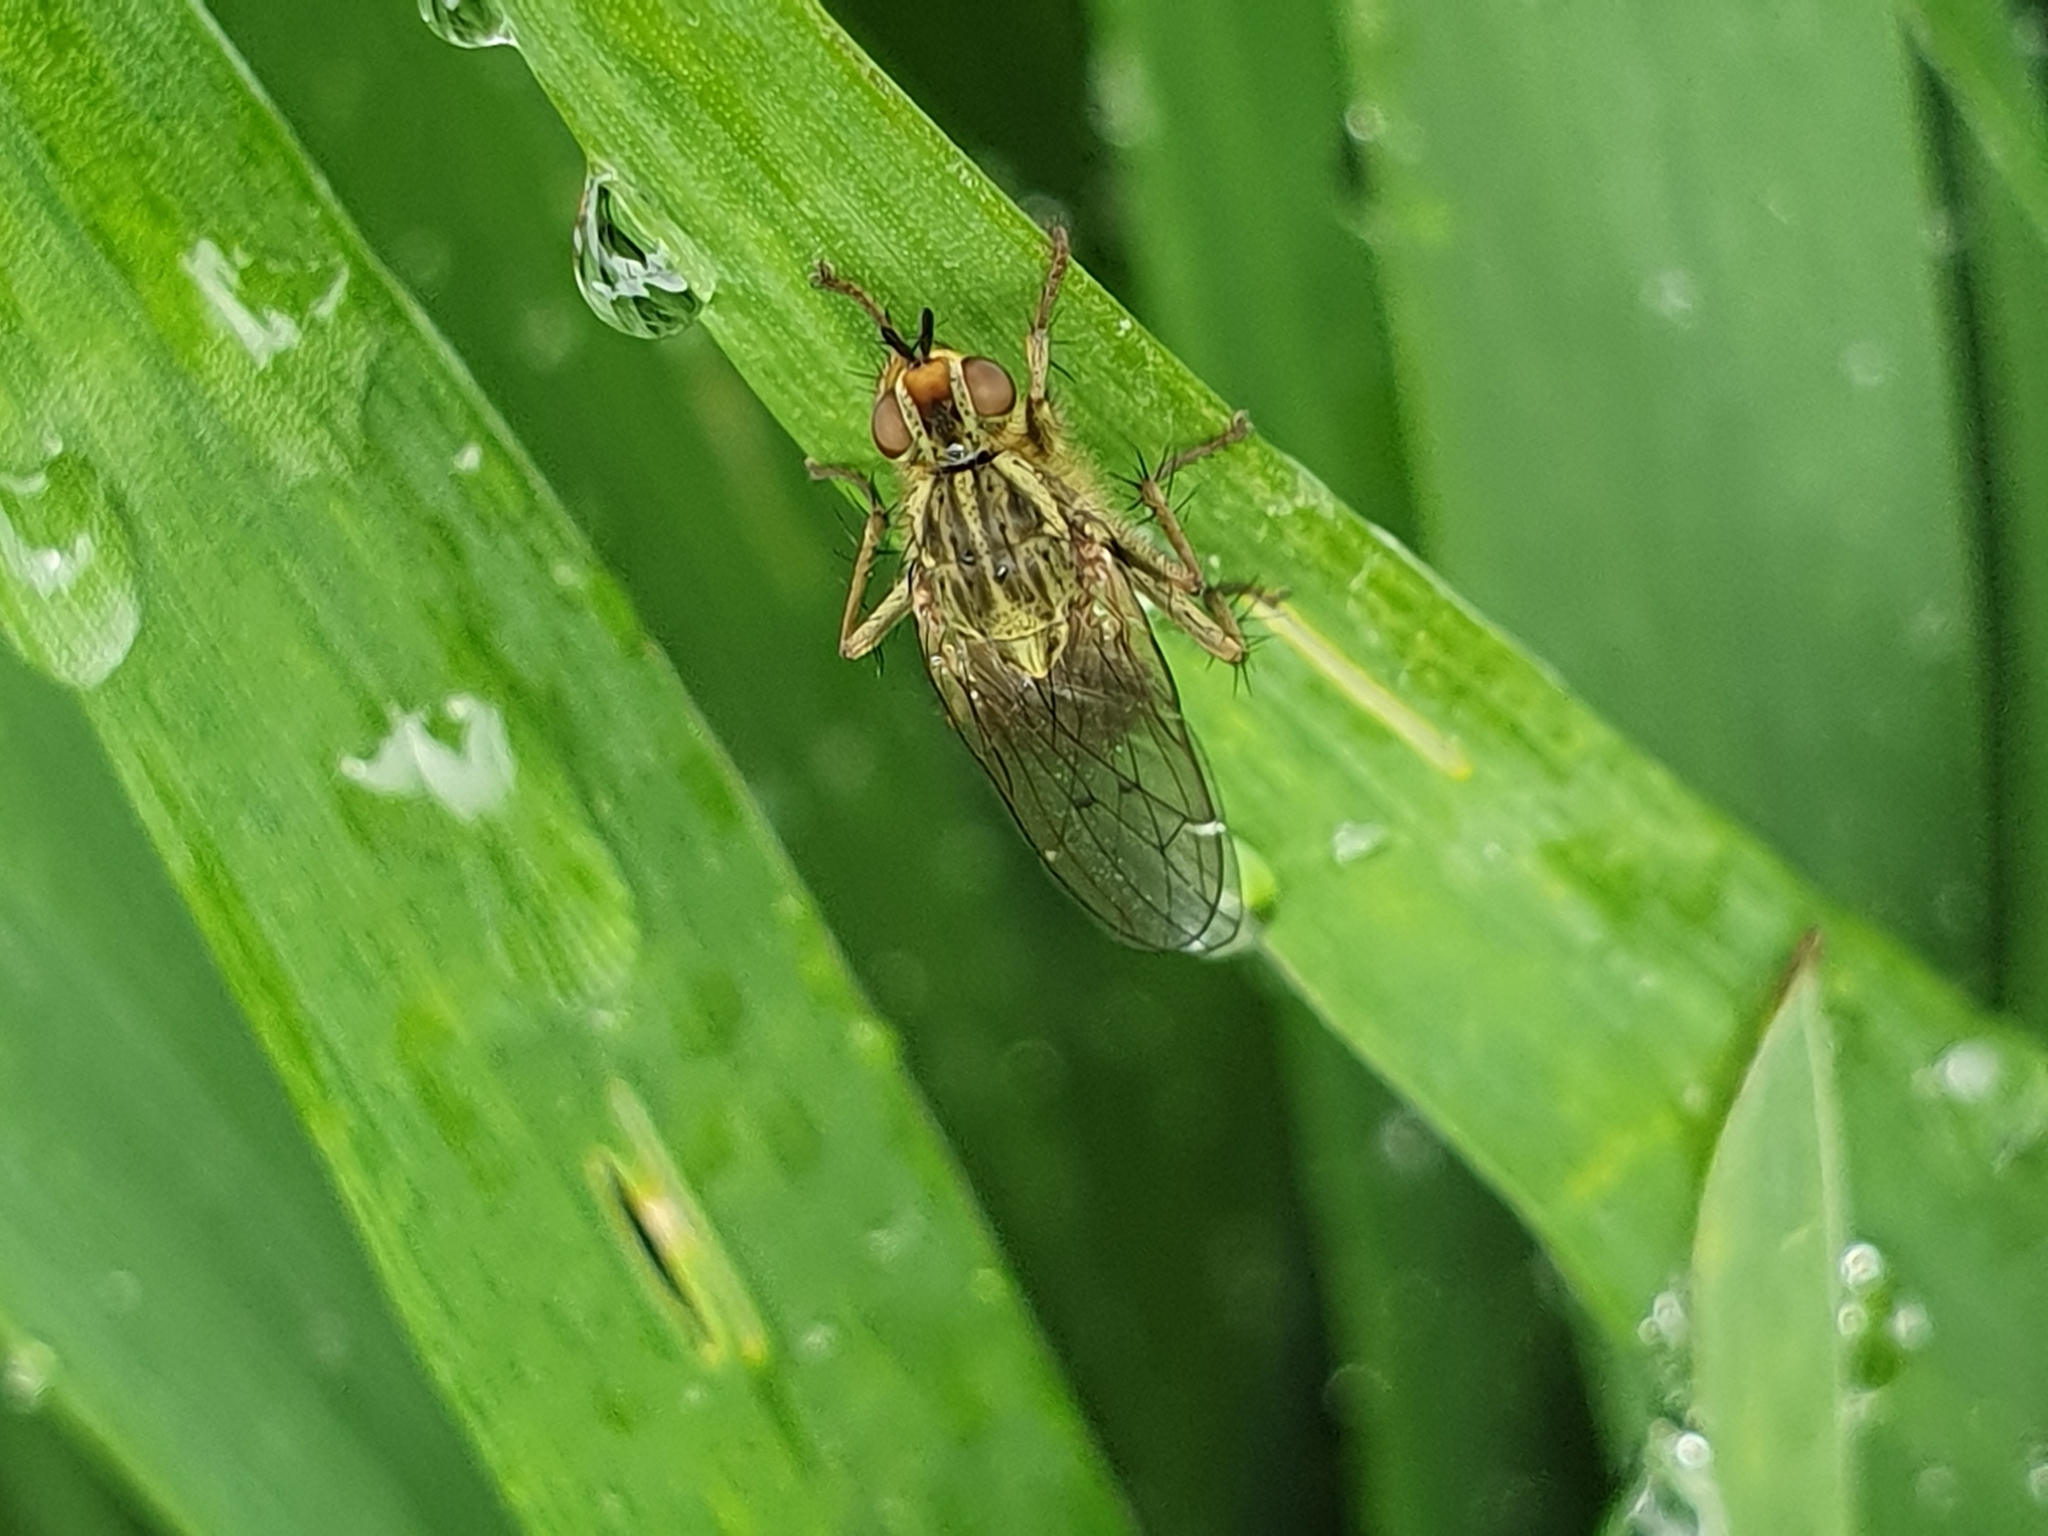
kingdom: Animalia
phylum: Arthropoda
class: Insecta
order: Diptera
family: Scathophagidae
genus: Scathophaga
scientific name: Scathophaga stercoraria
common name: Yellow dung fly
